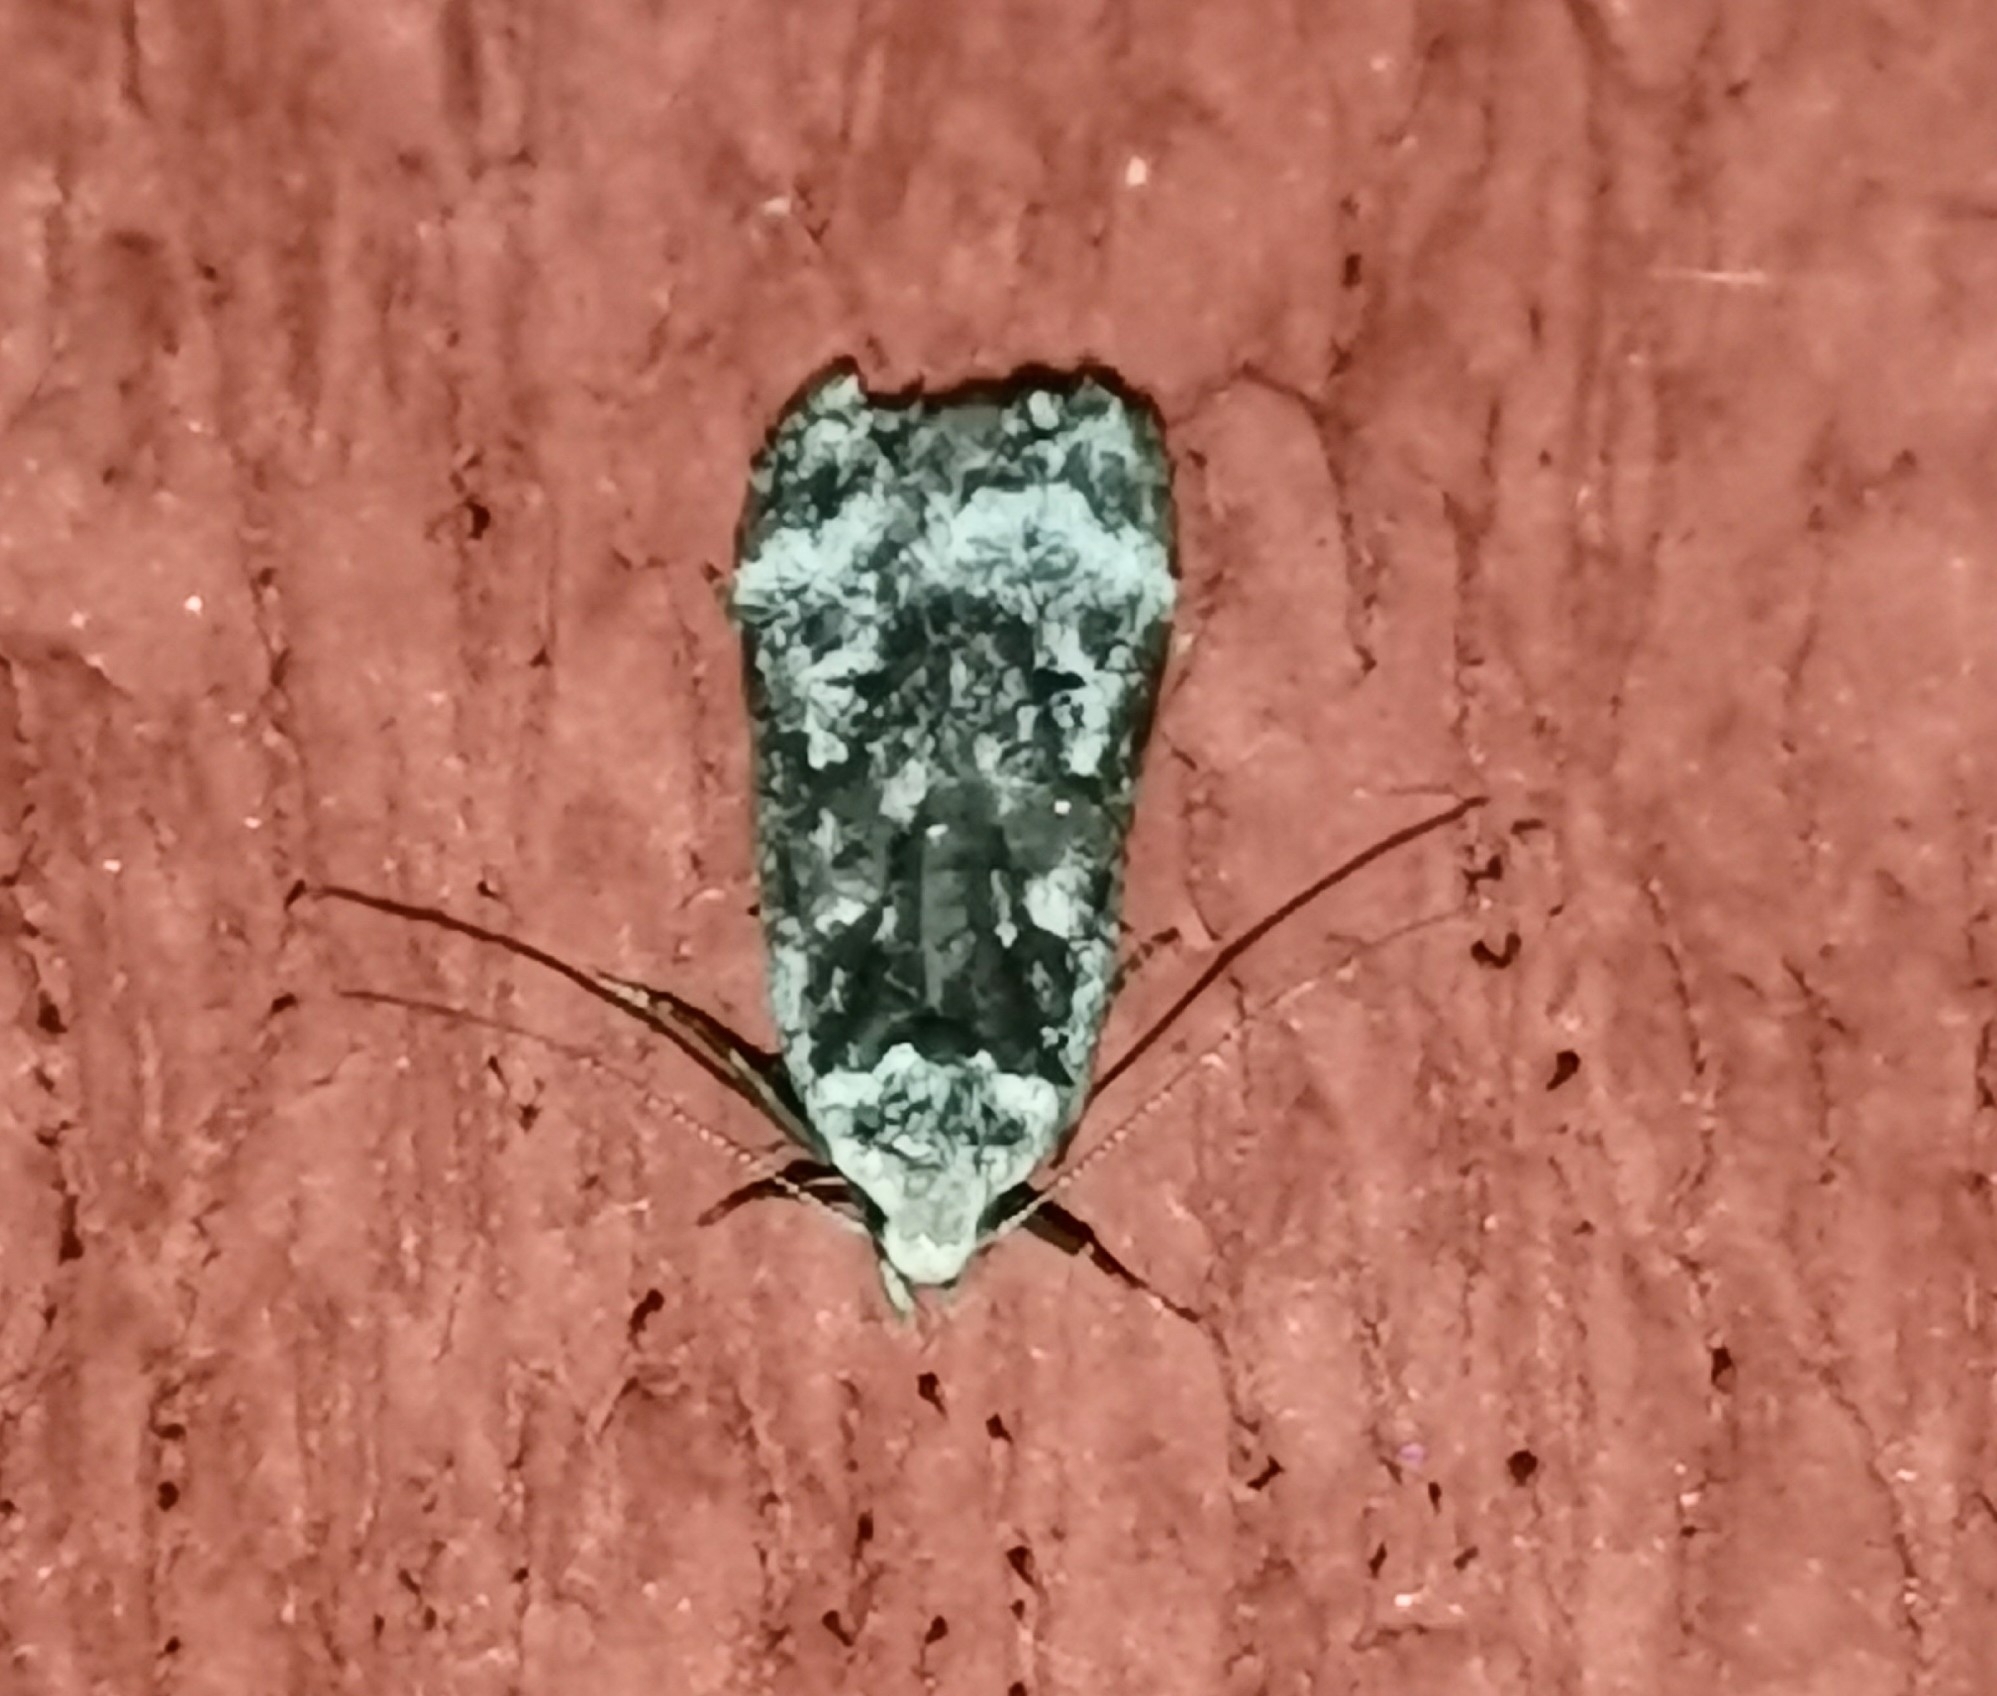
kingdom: Animalia
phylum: Arthropoda
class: Insecta
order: Lepidoptera
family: Gelechiidae
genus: Anacampsis
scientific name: Anacampsis blattariella
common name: Birch sober
